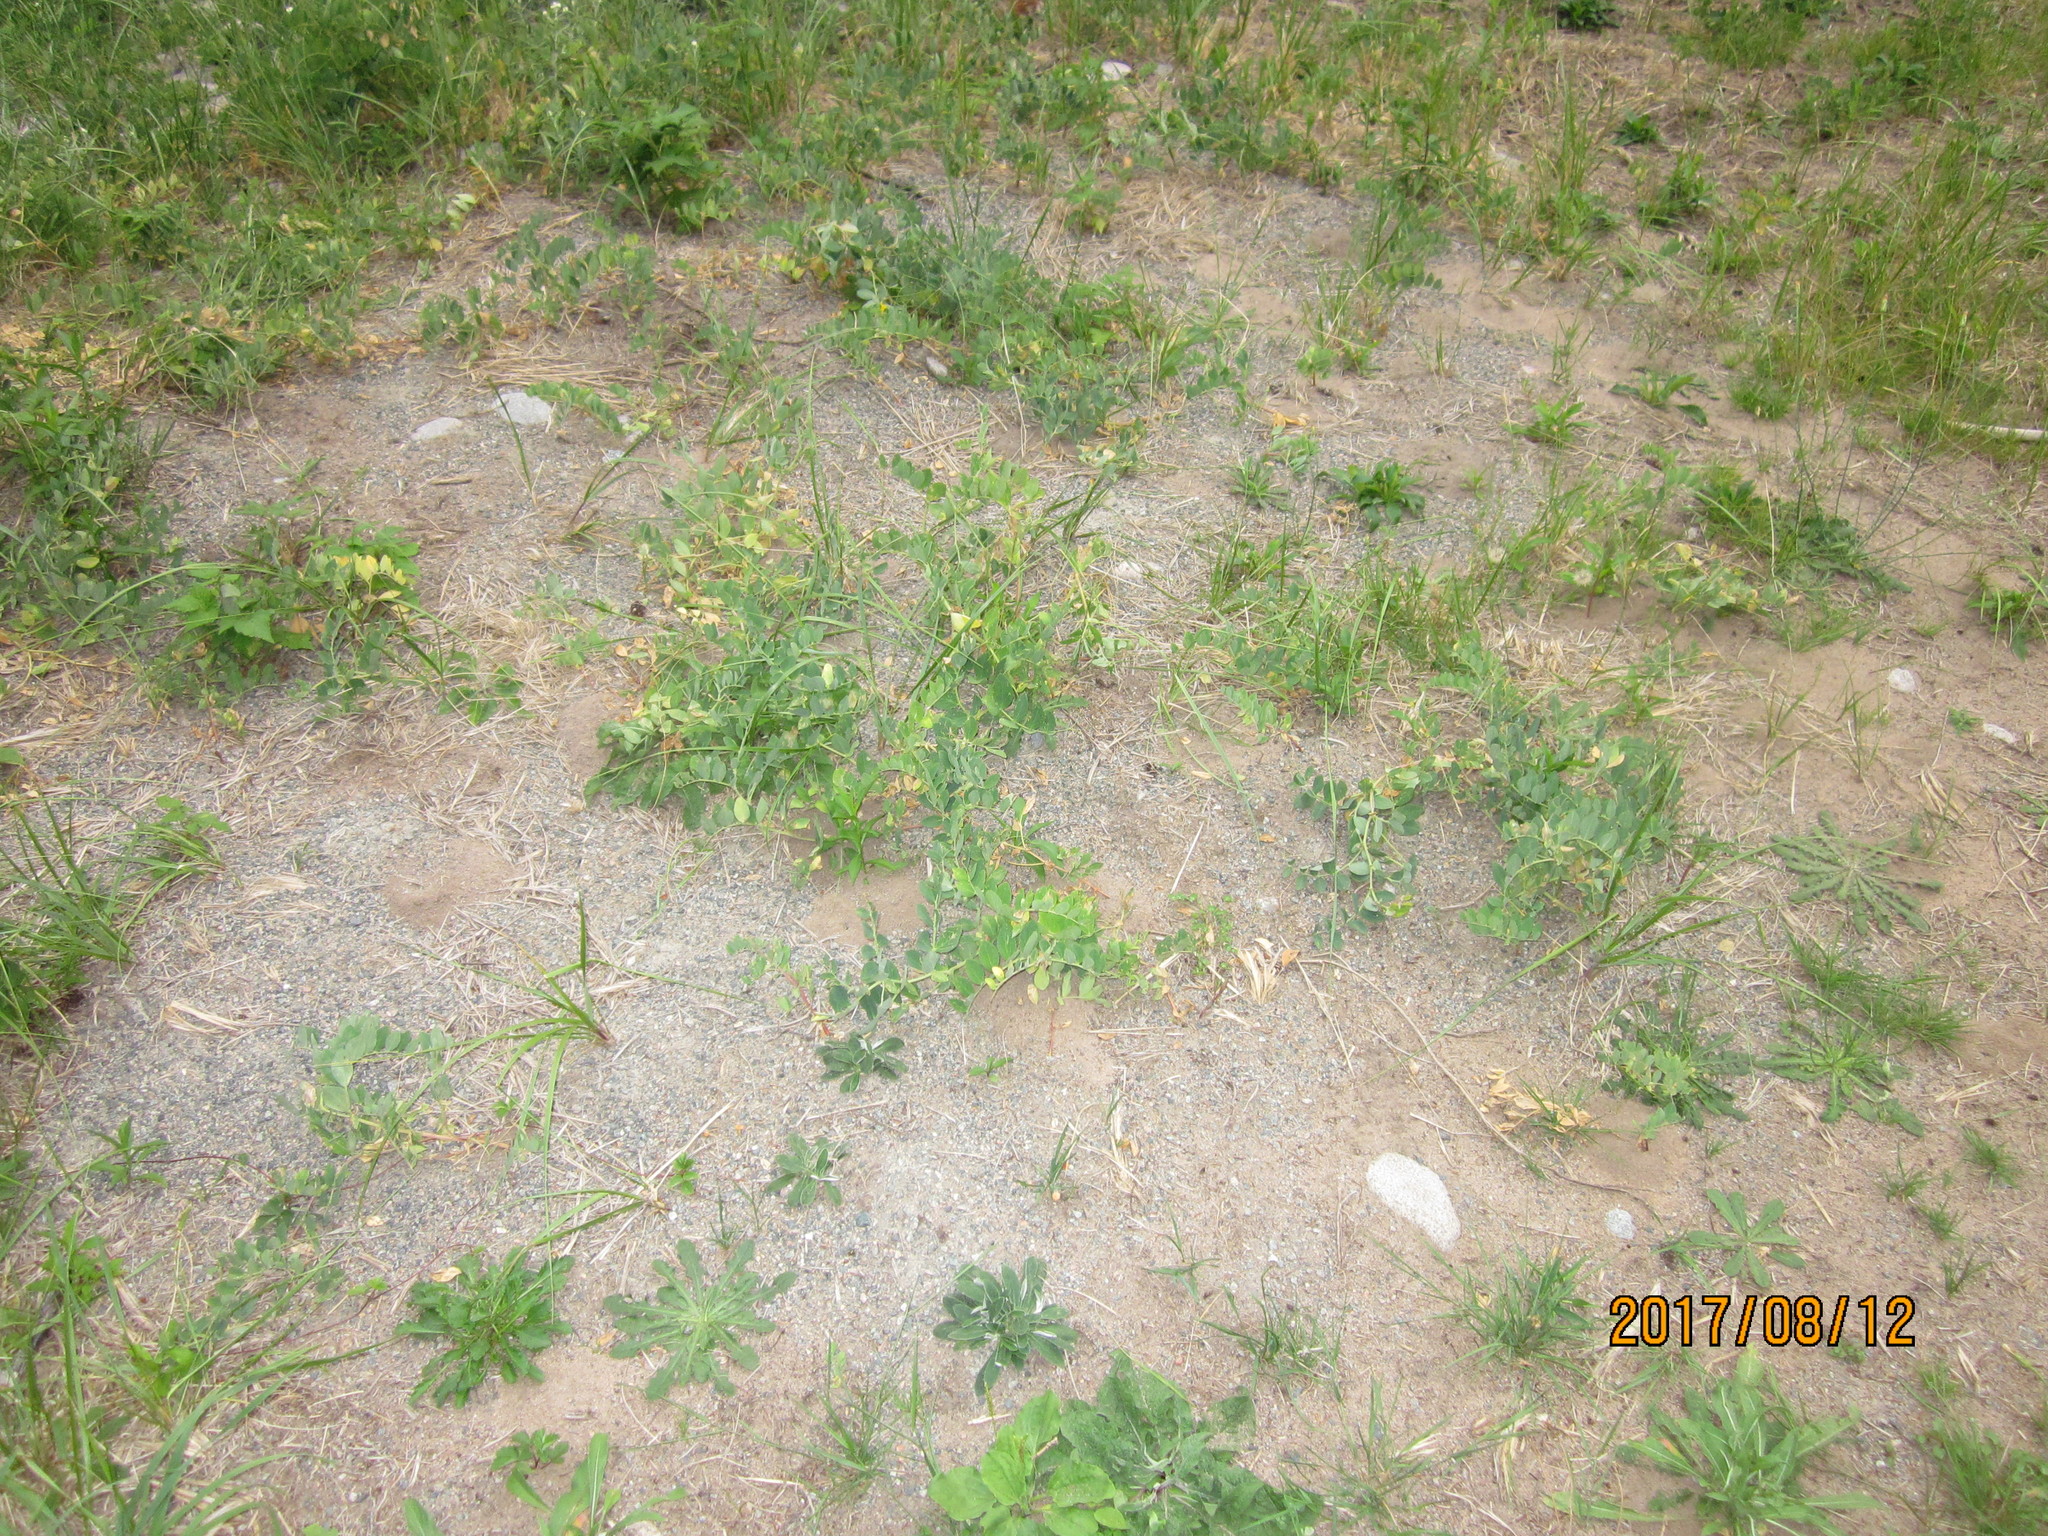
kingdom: Plantae
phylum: Tracheophyta
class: Magnoliopsida
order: Fabales
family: Fabaceae
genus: Lathyrus
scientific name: Lathyrus japonicus
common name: Sea pea
